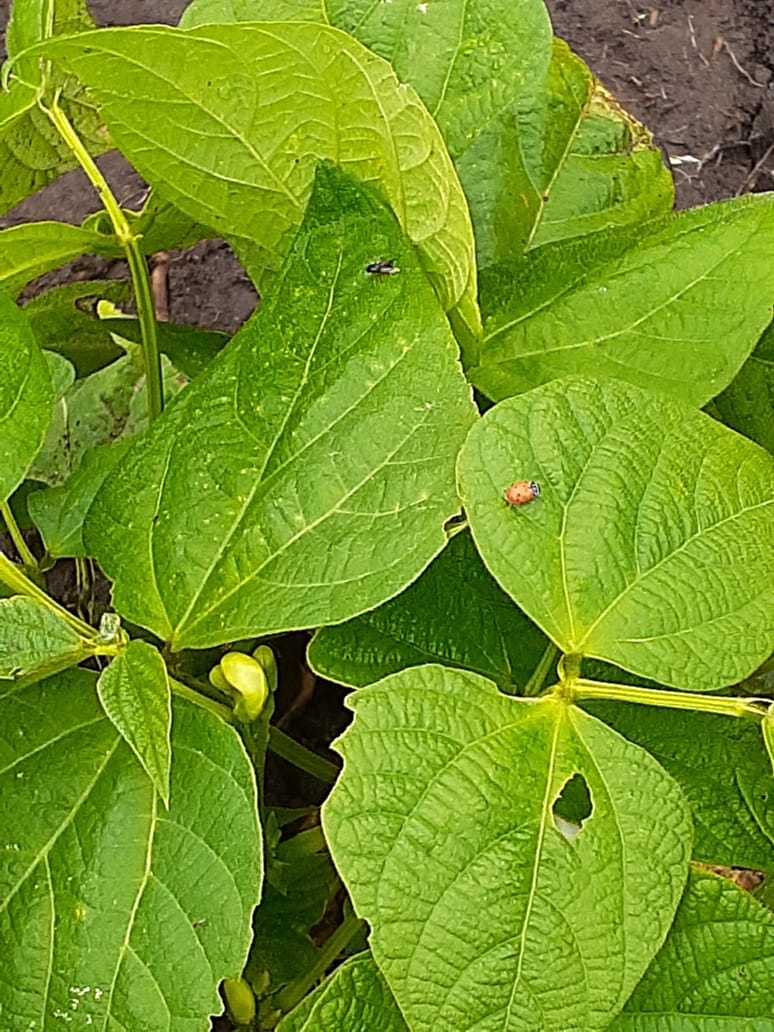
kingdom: Animalia
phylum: Arthropoda
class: Insecta
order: Coleoptera
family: Coccinellidae
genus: Hippodamia
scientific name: Hippodamia convergens
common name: Convergent lady beetle
